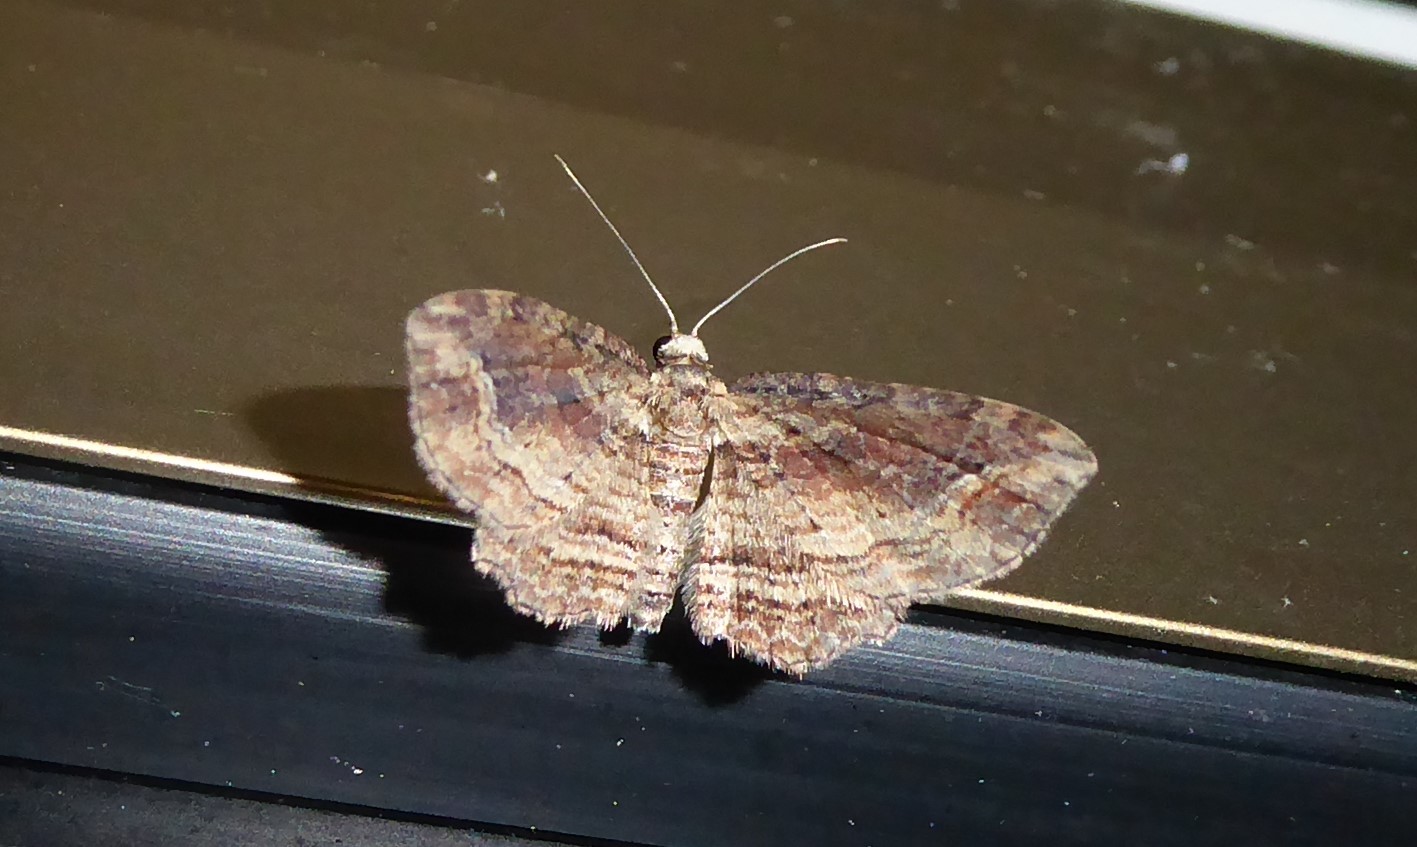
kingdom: Animalia
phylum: Arthropoda
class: Insecta
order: Lepidoptera
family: Geometridae
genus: Chloroclystis
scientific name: Chloroclystis filata
